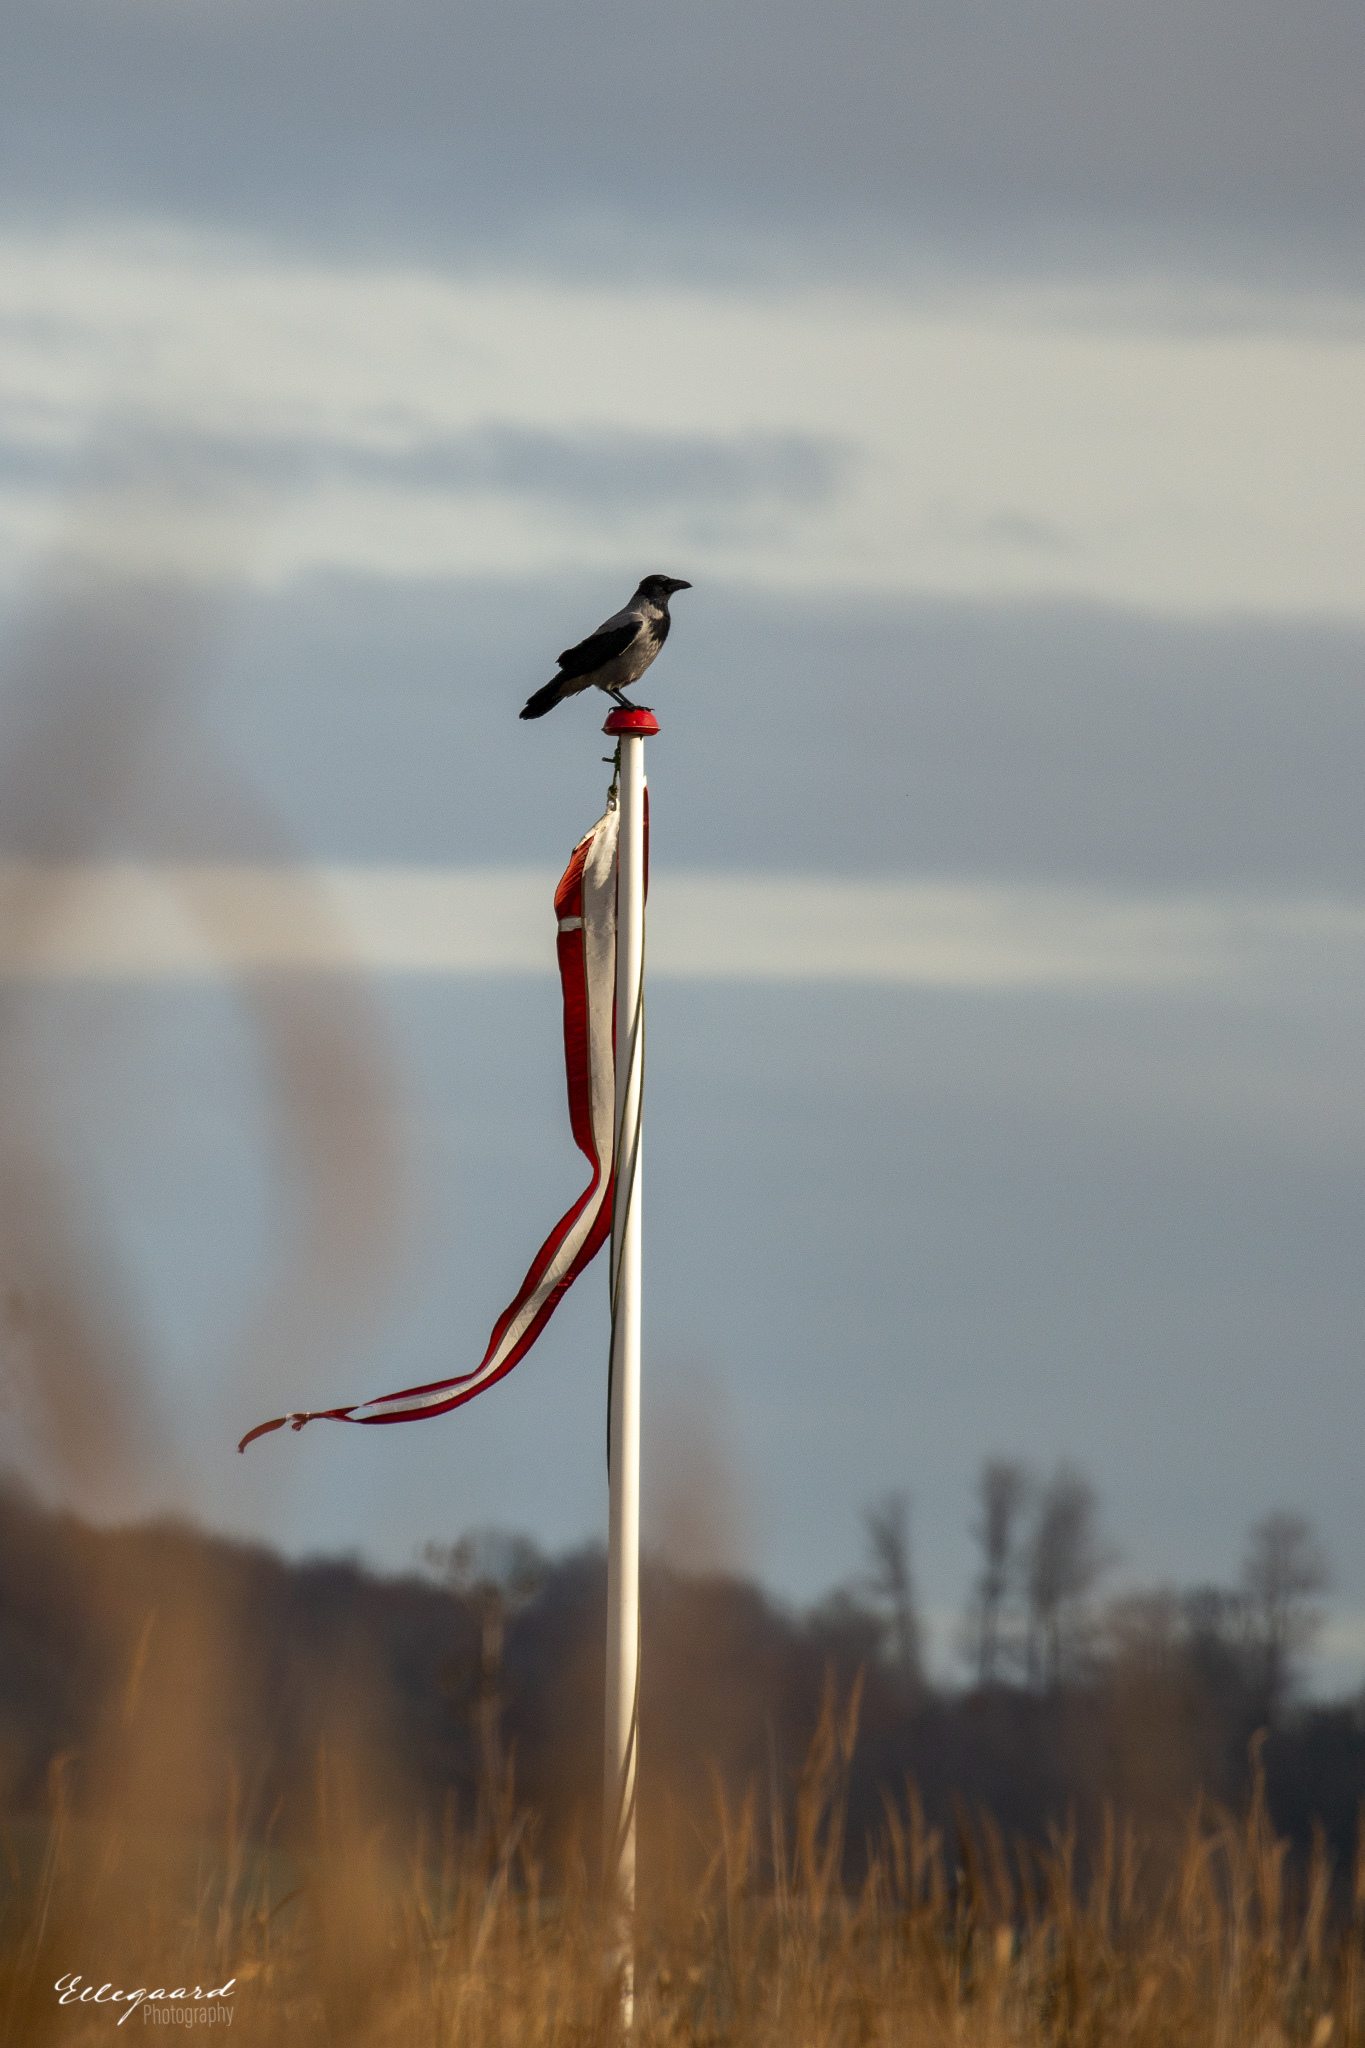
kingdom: Animalia
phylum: Chordata
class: Aves
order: Passeriformes
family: Corvidae
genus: Corvus
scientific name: Corvus cornix
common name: Hooded crow
